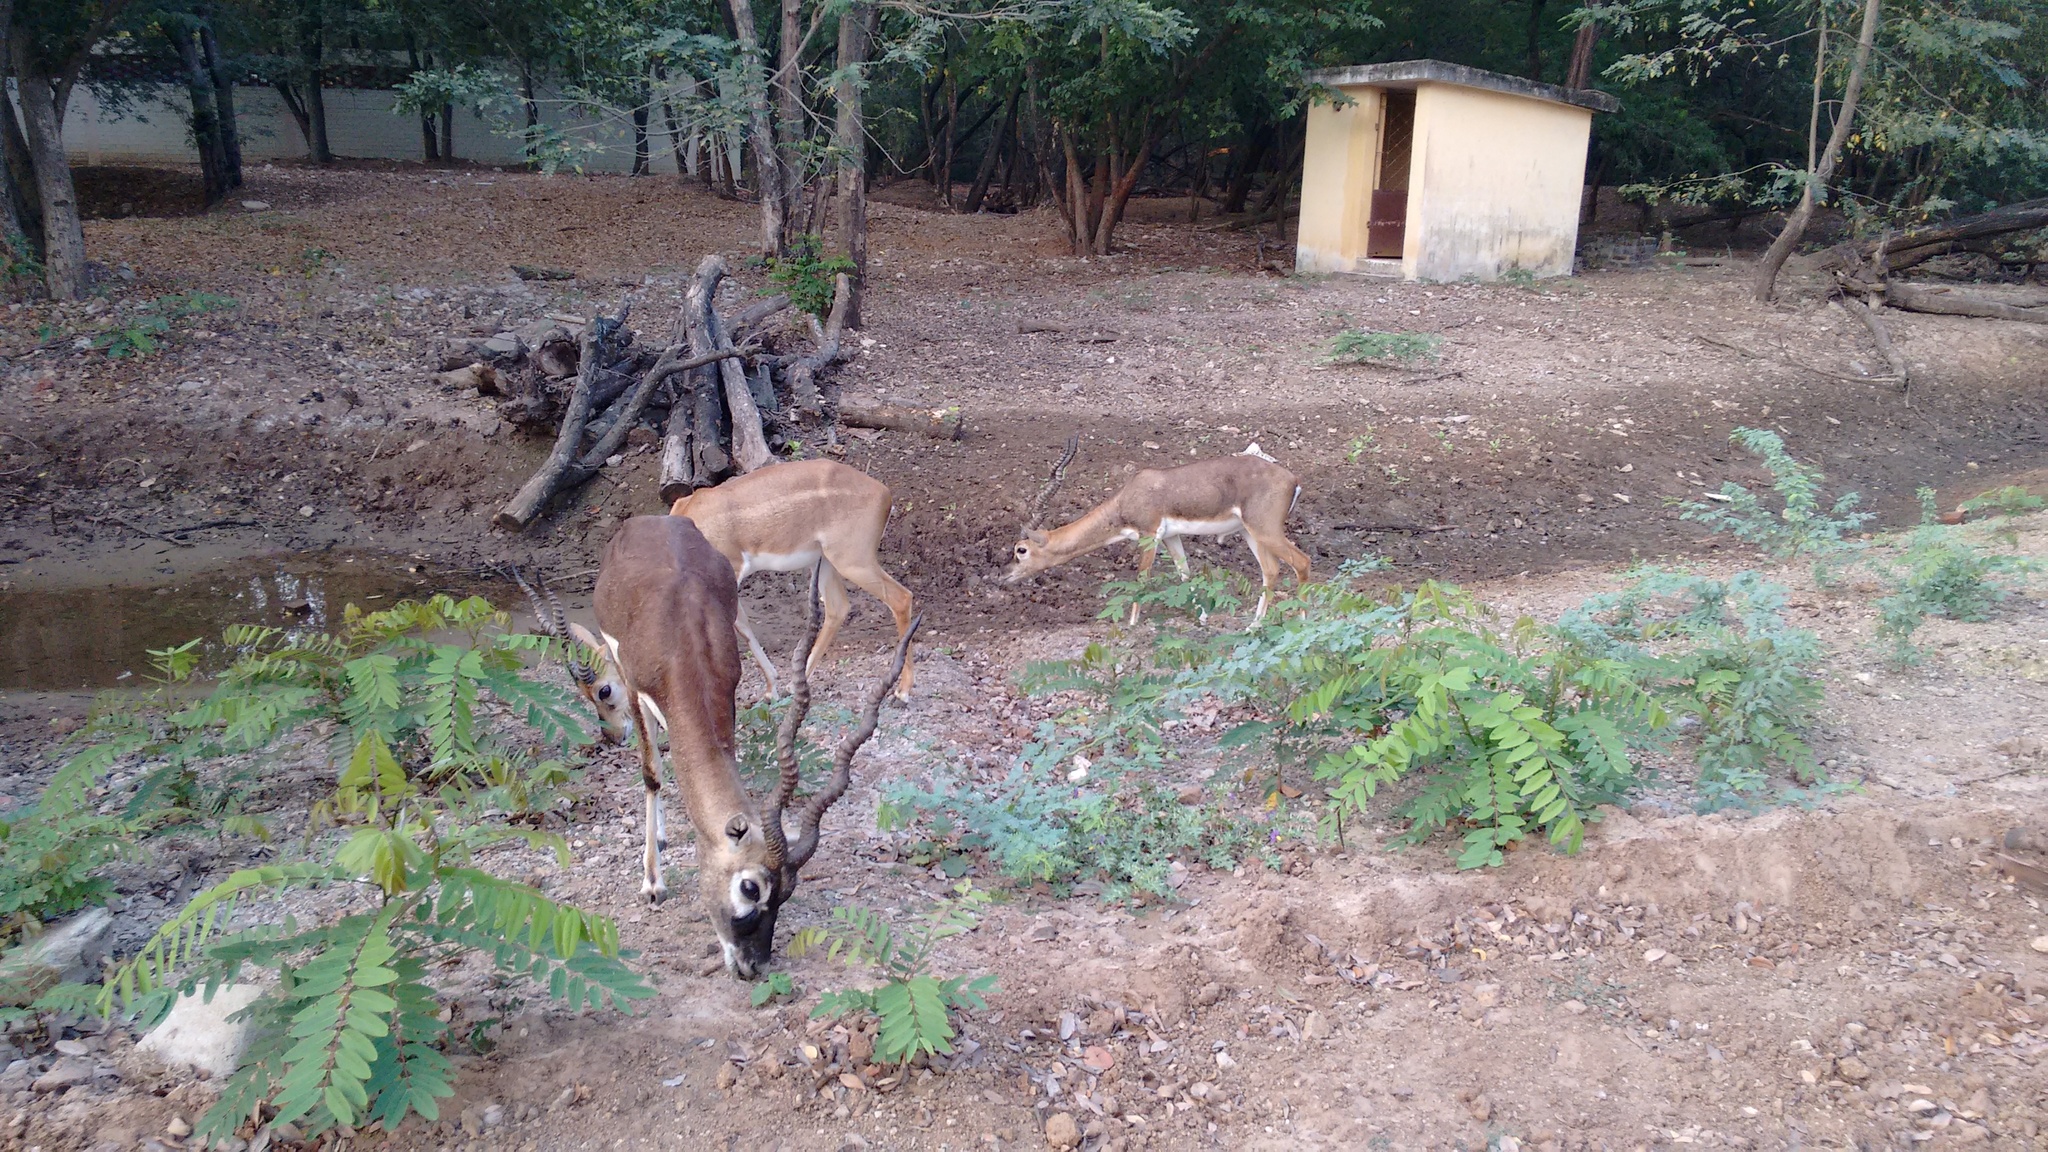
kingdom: Animalia
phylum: Chordata
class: Mammalia
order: Artiodactyla
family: Bovidae
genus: Antilope
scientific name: Antilope cervicapra
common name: Blackbuck
